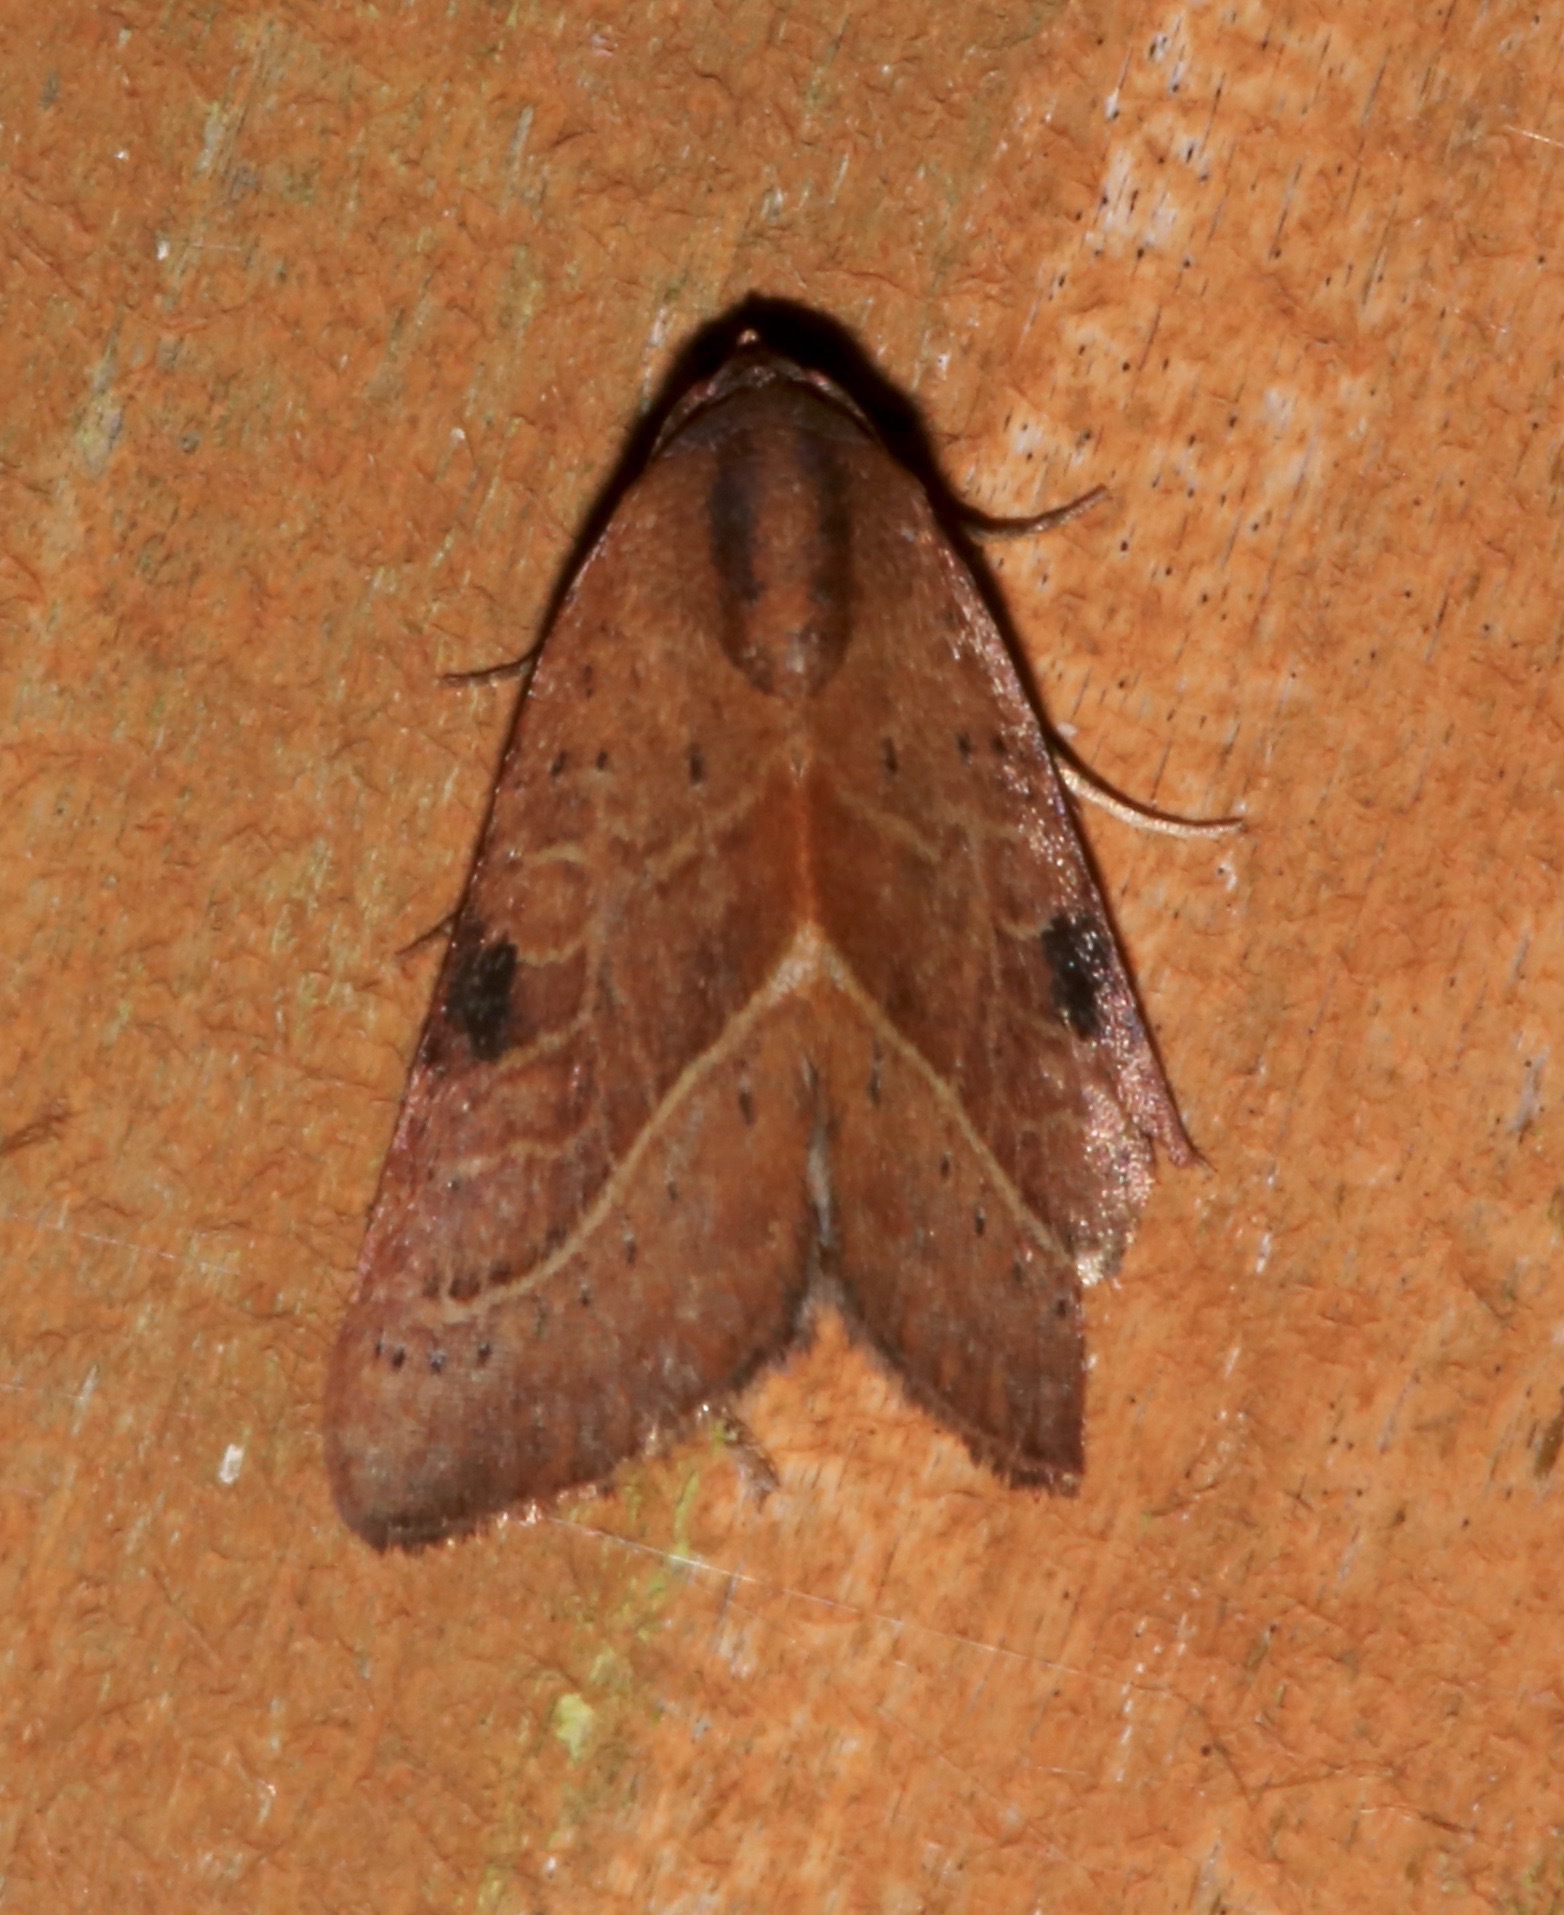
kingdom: Animalia
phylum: Arthropoda
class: Insecta
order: Lepidoptera
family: Noctuidae
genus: Galgula
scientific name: Galgula partita
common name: Wedgeling
